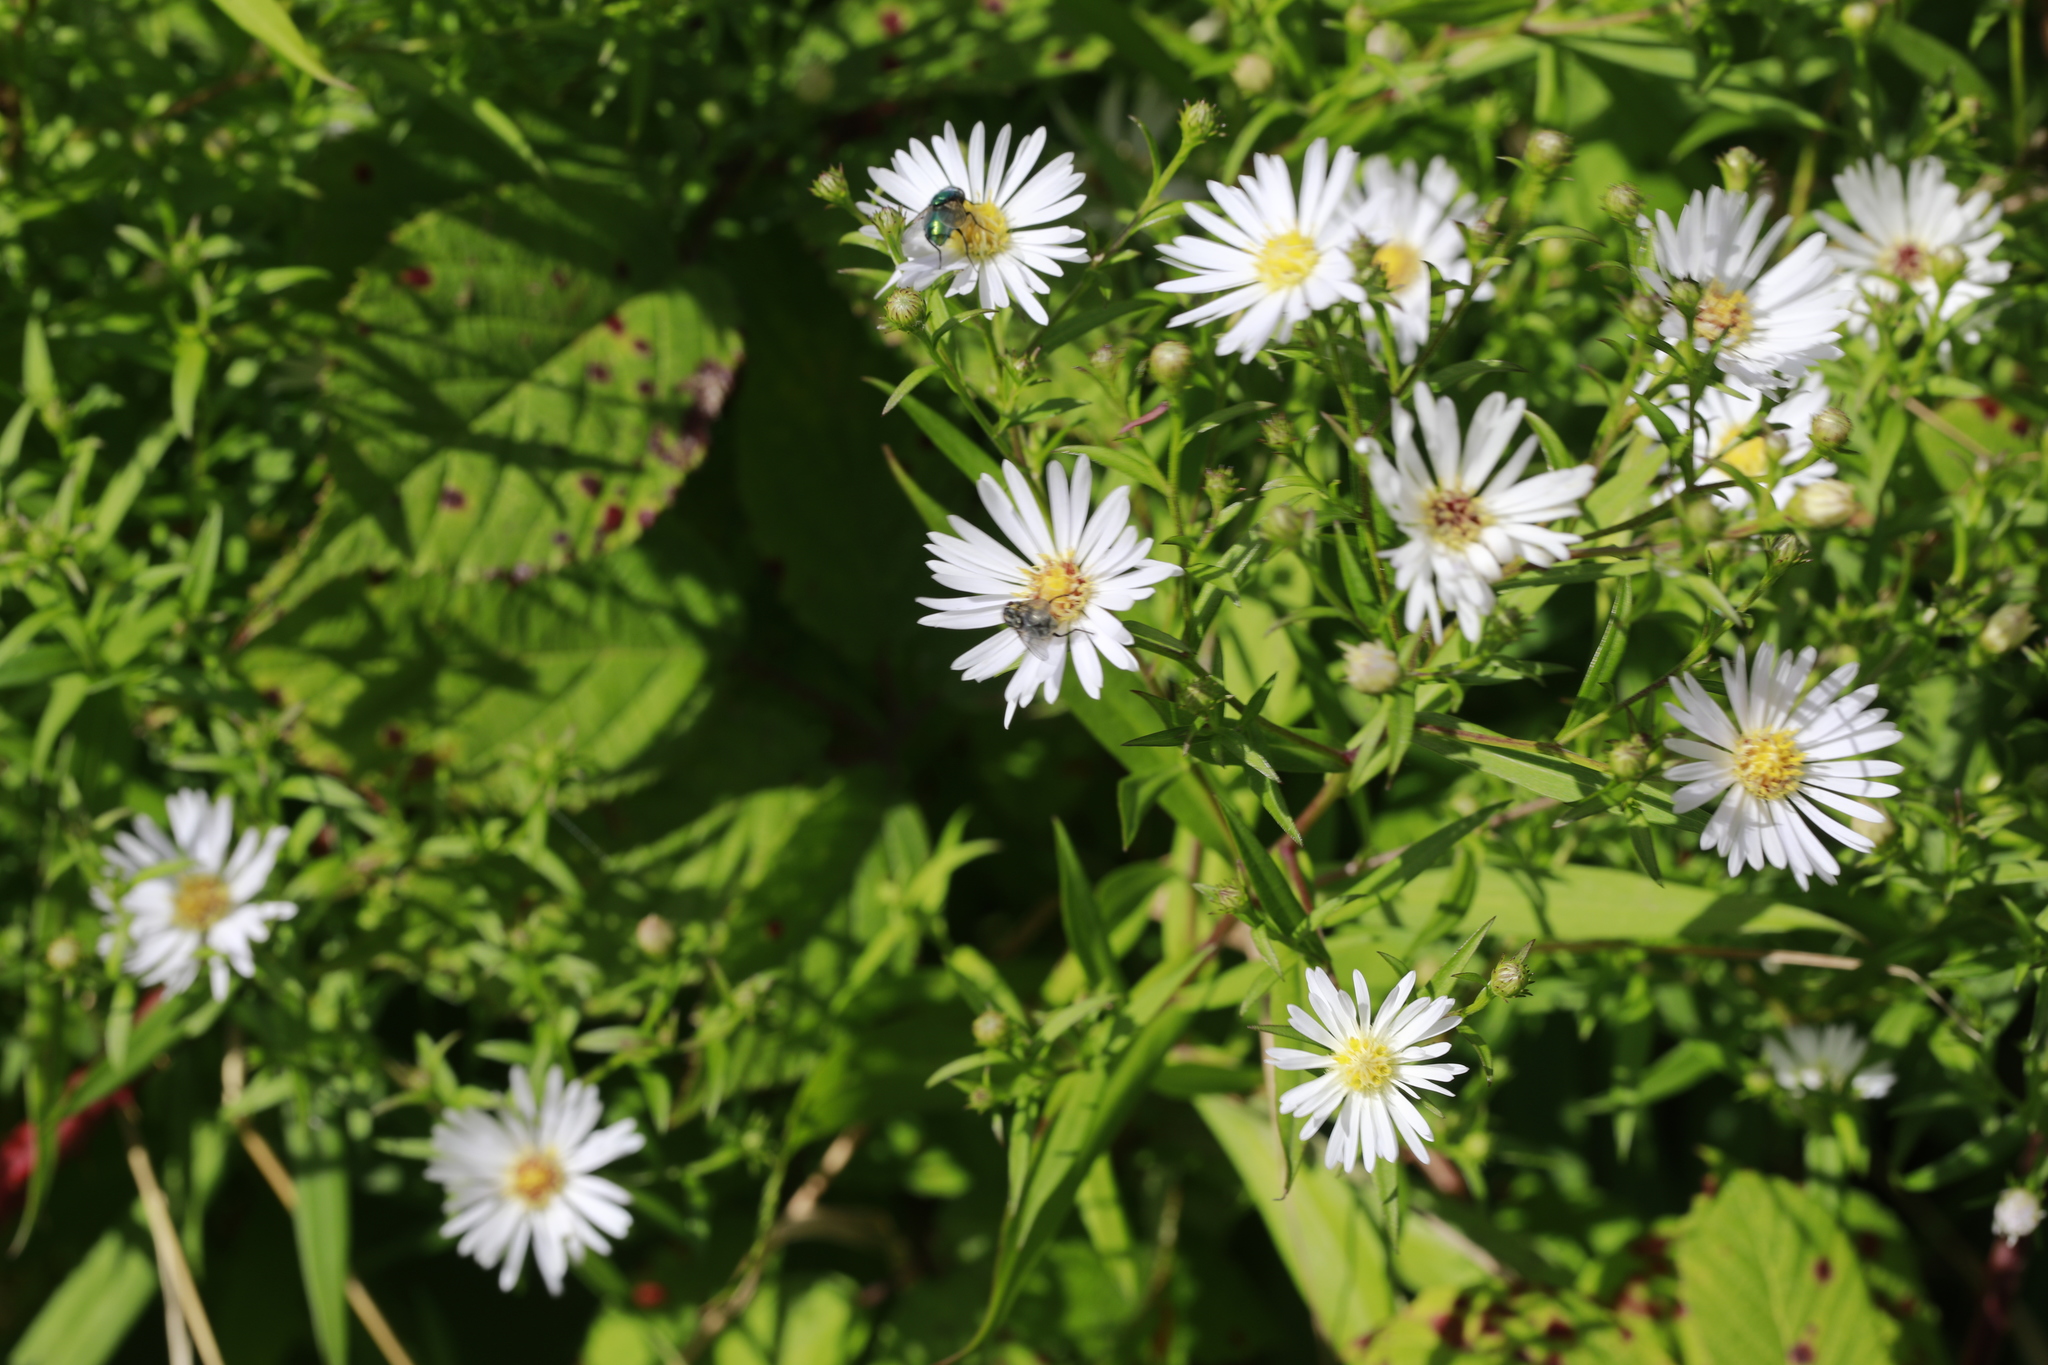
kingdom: Plantae
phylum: Tracheophyta
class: Magnoliopsida
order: Asterales
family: Asteraceae
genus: Symphyotrichum
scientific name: Symphyotrichum lanceolatum
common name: Panicled aster
